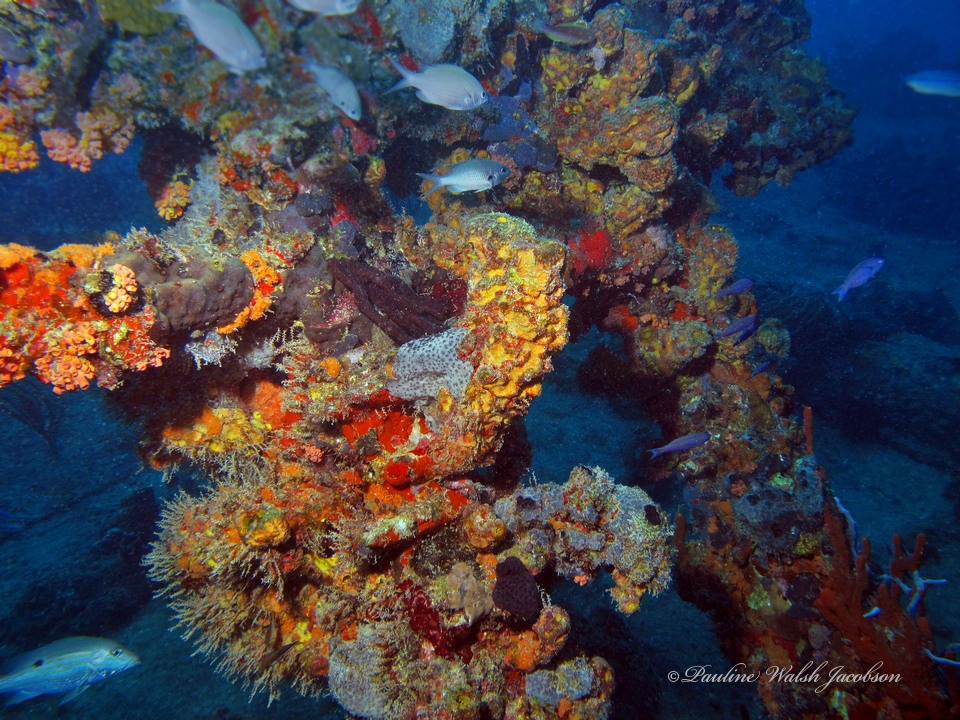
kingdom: Animalia
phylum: Chordata
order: Perciformes
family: Pomacentridae
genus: Chromis
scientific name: Chromis multilineata
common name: Brown chromis
